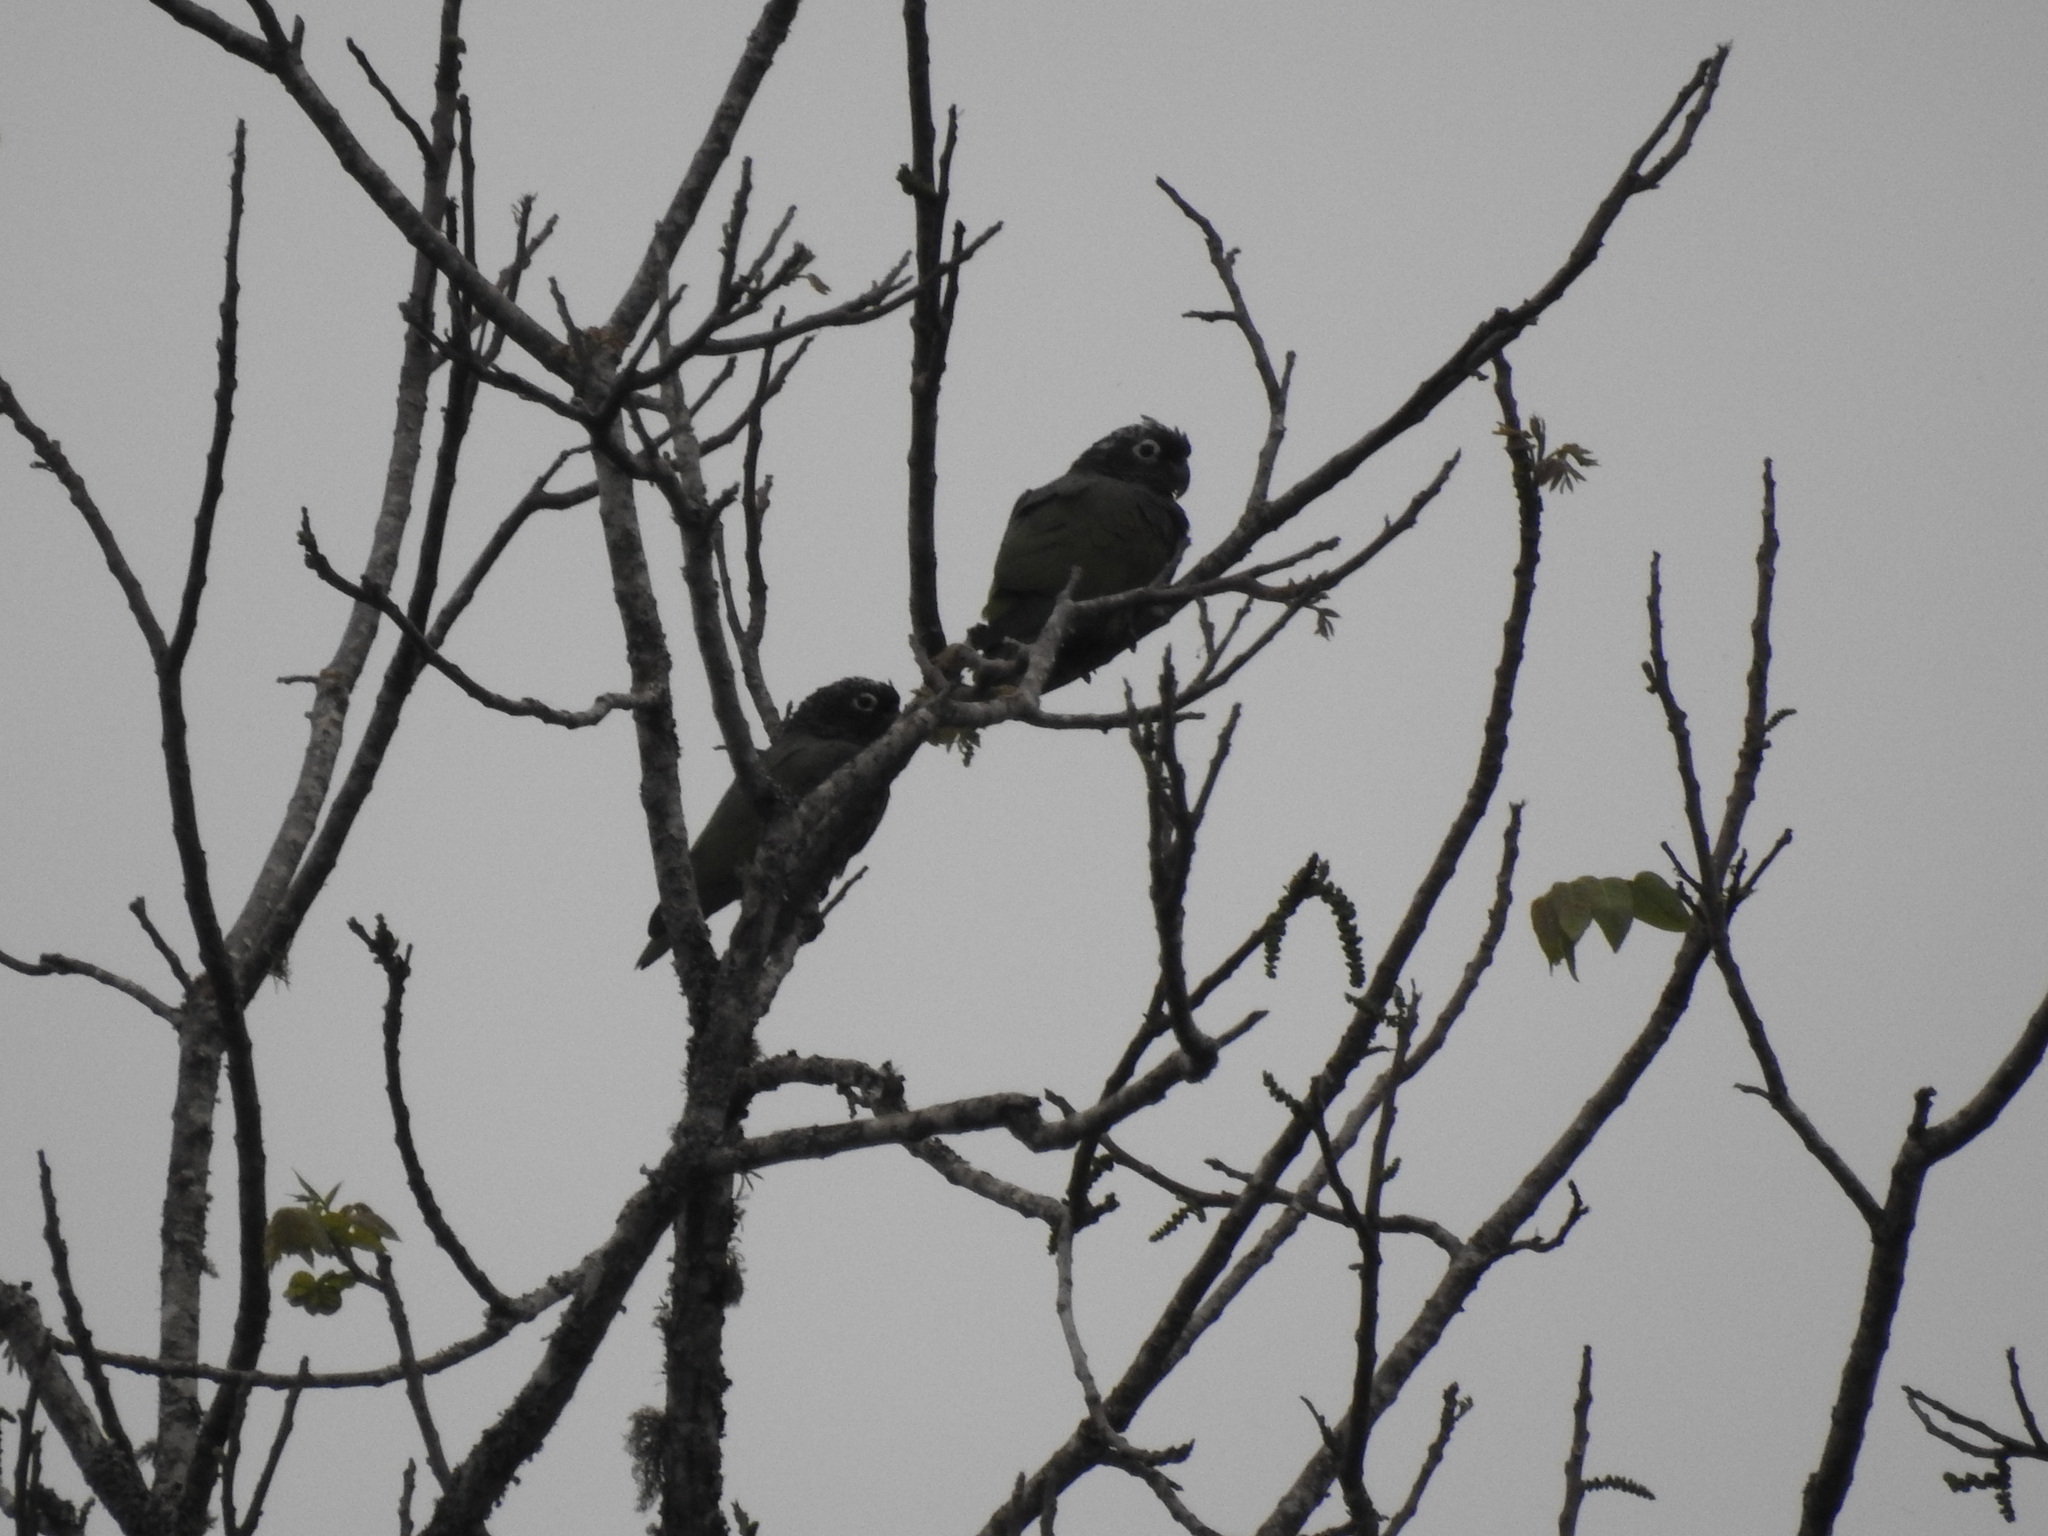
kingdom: Animalia
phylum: Chordata
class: Aves
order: Psittaciformes
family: Psittacidae
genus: Pionus
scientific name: Pionus maximiliani
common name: Scaly-headed parrot
